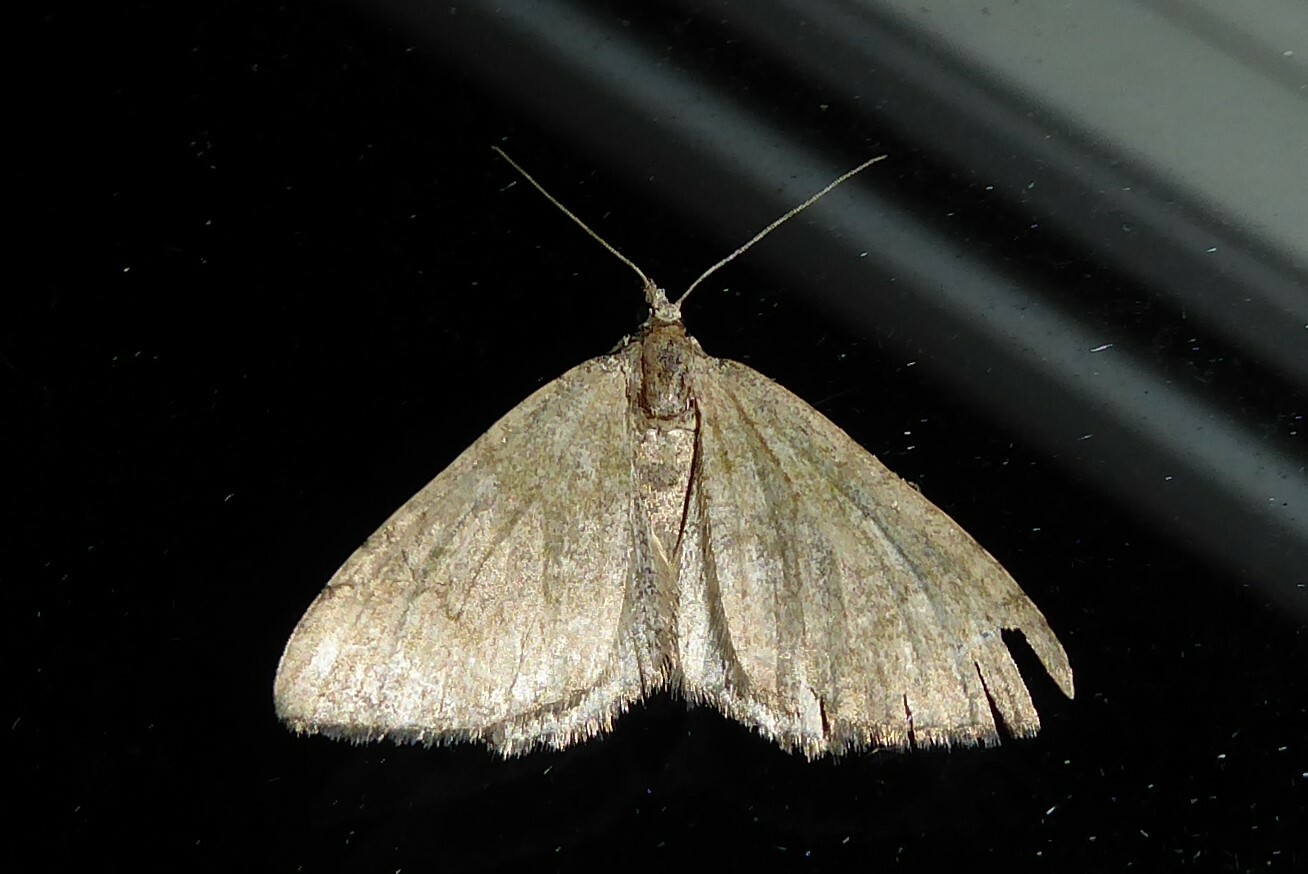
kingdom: Animalia
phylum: Arthropoda
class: Insecta
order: Lepidoptera
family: Geometridae
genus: Epyaxa
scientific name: Epyaxa rosearia
